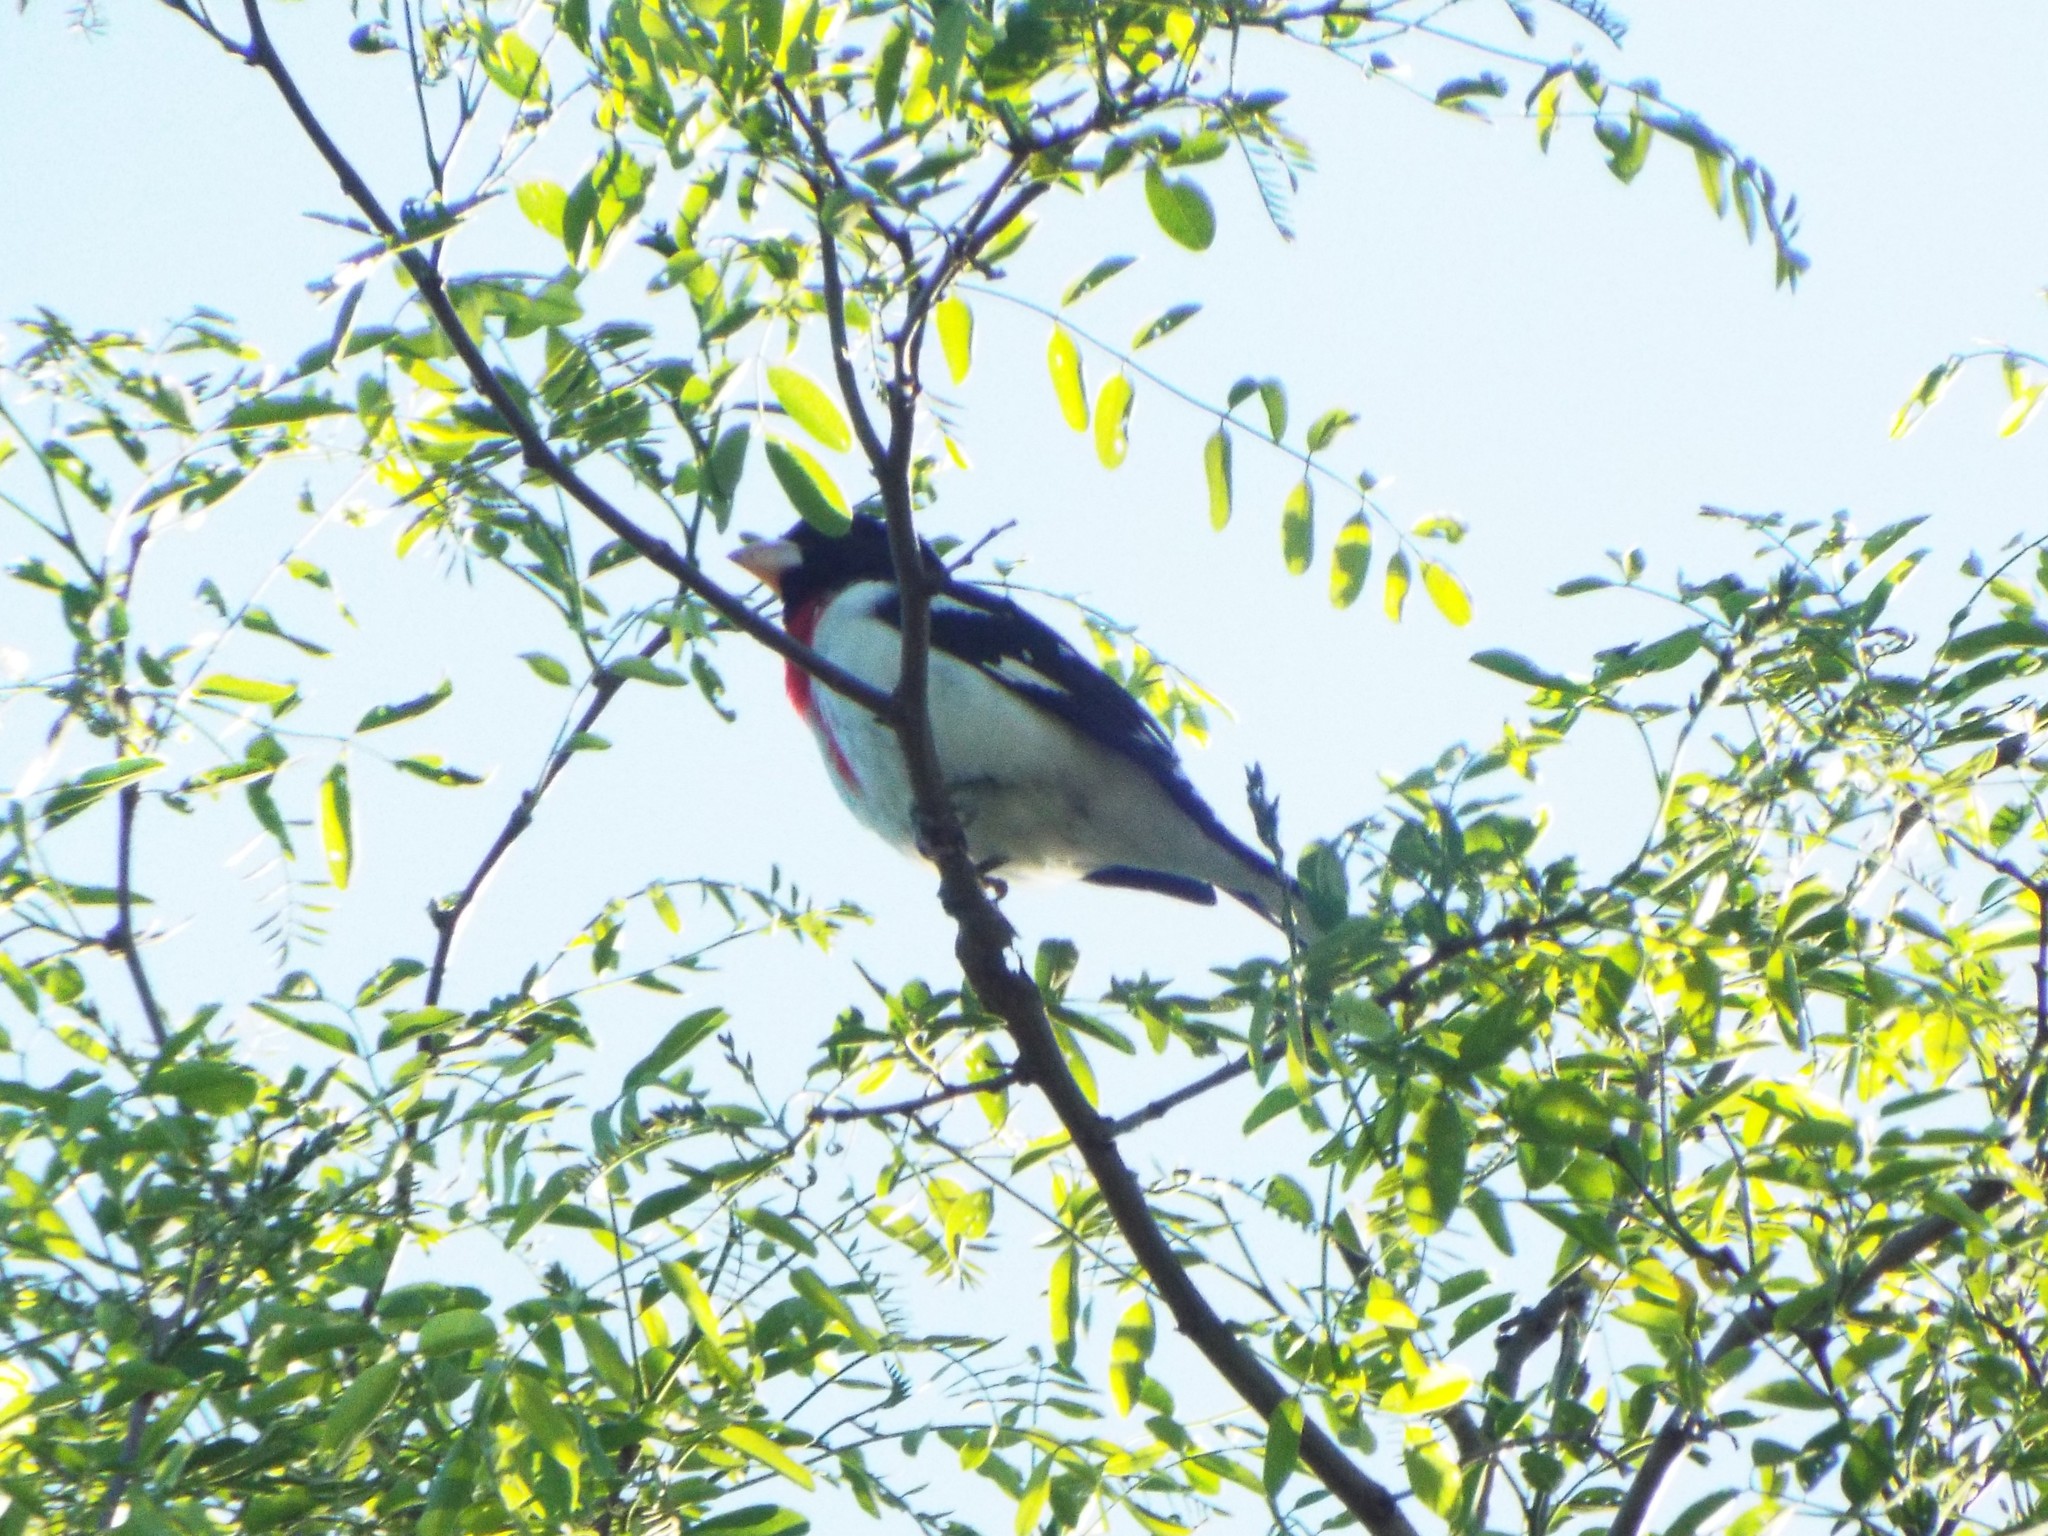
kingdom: Animalia
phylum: Chordata
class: Aves
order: Passeriformes
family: Cardinalidae
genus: Pheucticus
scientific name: Pheucticus ludovicianus
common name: Rose-breasted grosbeak
